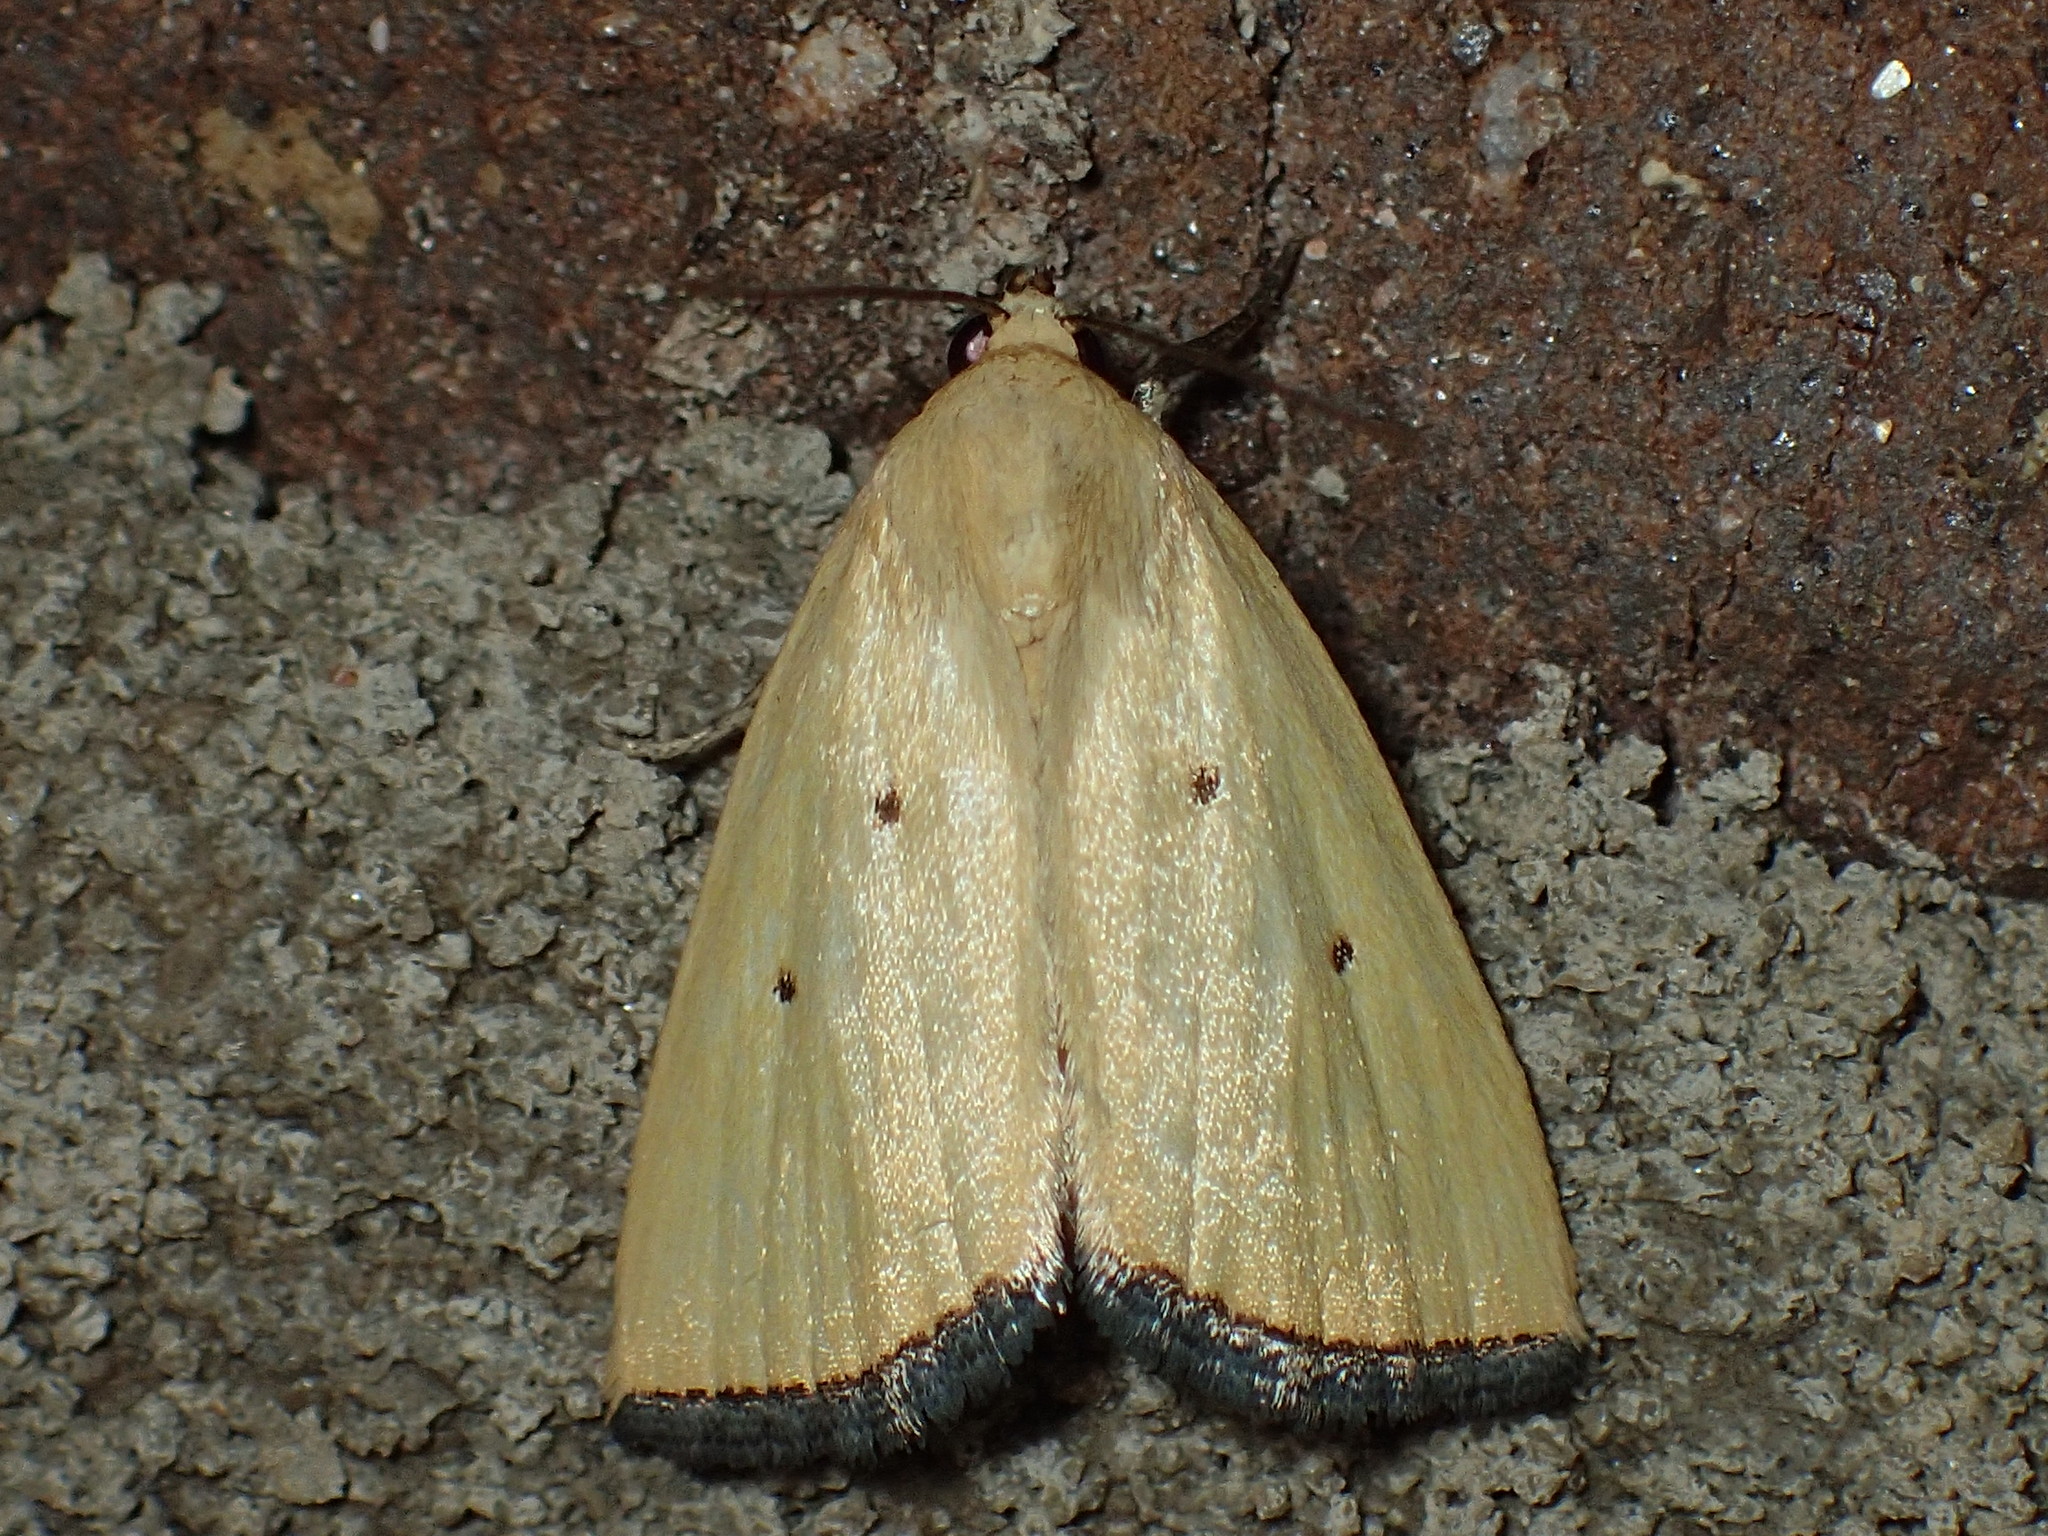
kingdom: Animalia
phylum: Arthropoda
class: Insecta
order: Lepidoptera
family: Noctuidae
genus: Marimatha
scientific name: Marimatha nigrofimbria
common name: Black-bordered lemon moth
